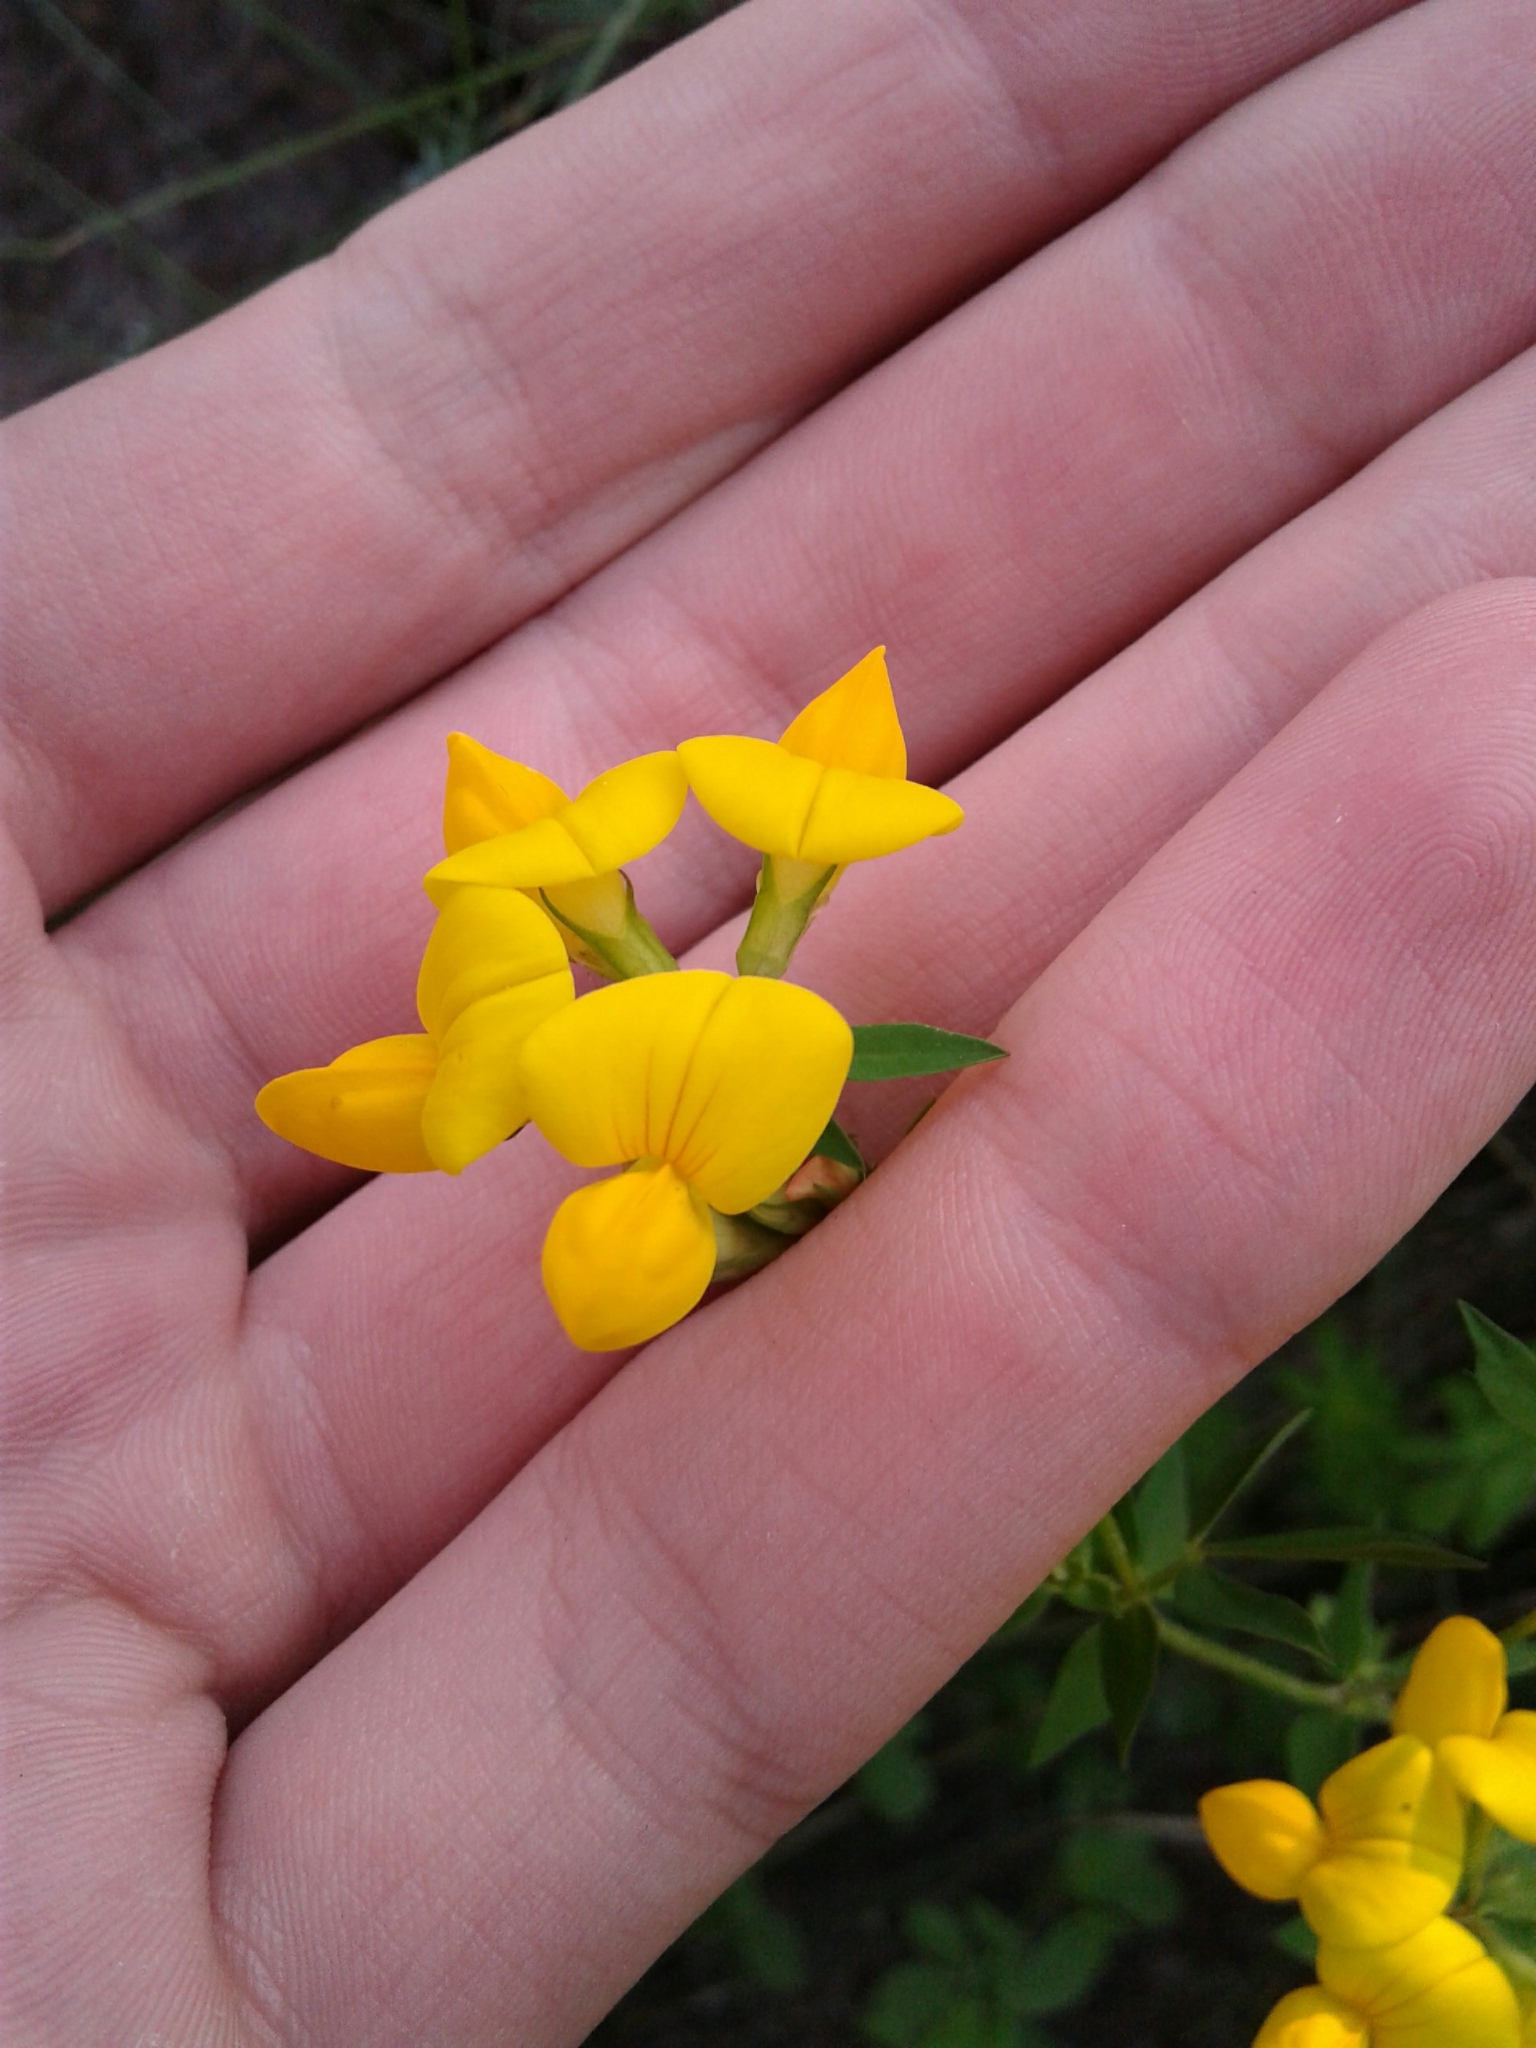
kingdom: Plantae
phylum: Tracheophyta
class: Magnoliopsida
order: Fabales
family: Fabaceae
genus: Lotus
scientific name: Lotus corniculatus
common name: Common bird's-foot-trefoil
